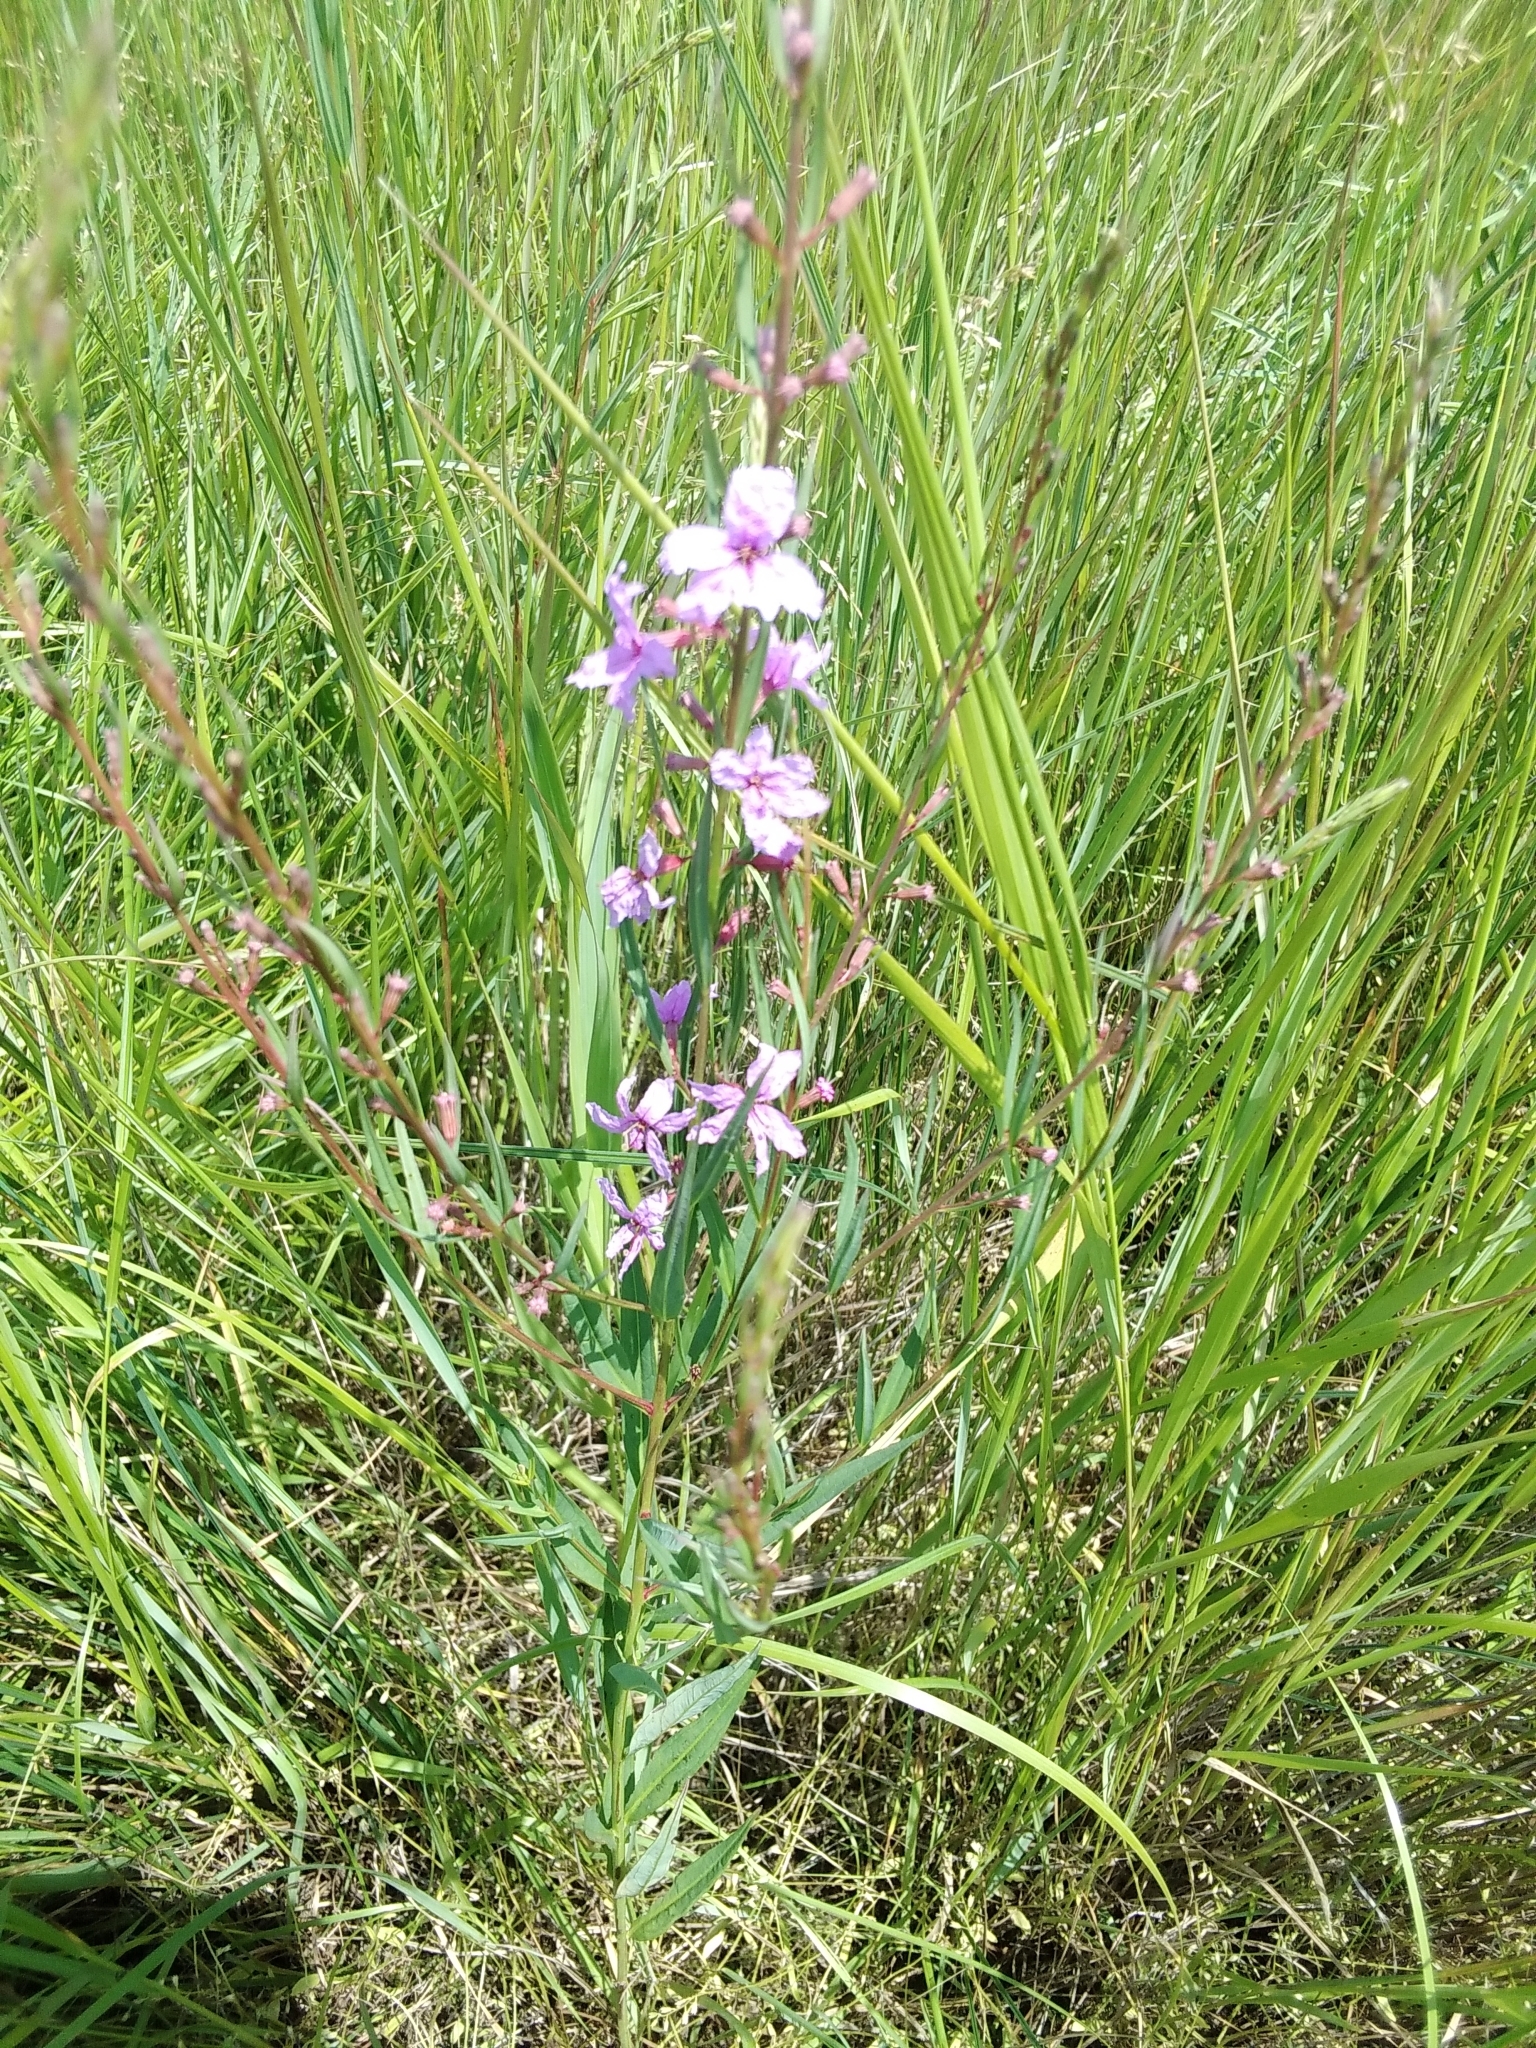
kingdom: Plantae
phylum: Tracheophyta
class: Magnoliopsida
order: Myrtales
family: Lythraceae
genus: Lythrum
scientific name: Lythrum virgatum
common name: European wand loosestrife
